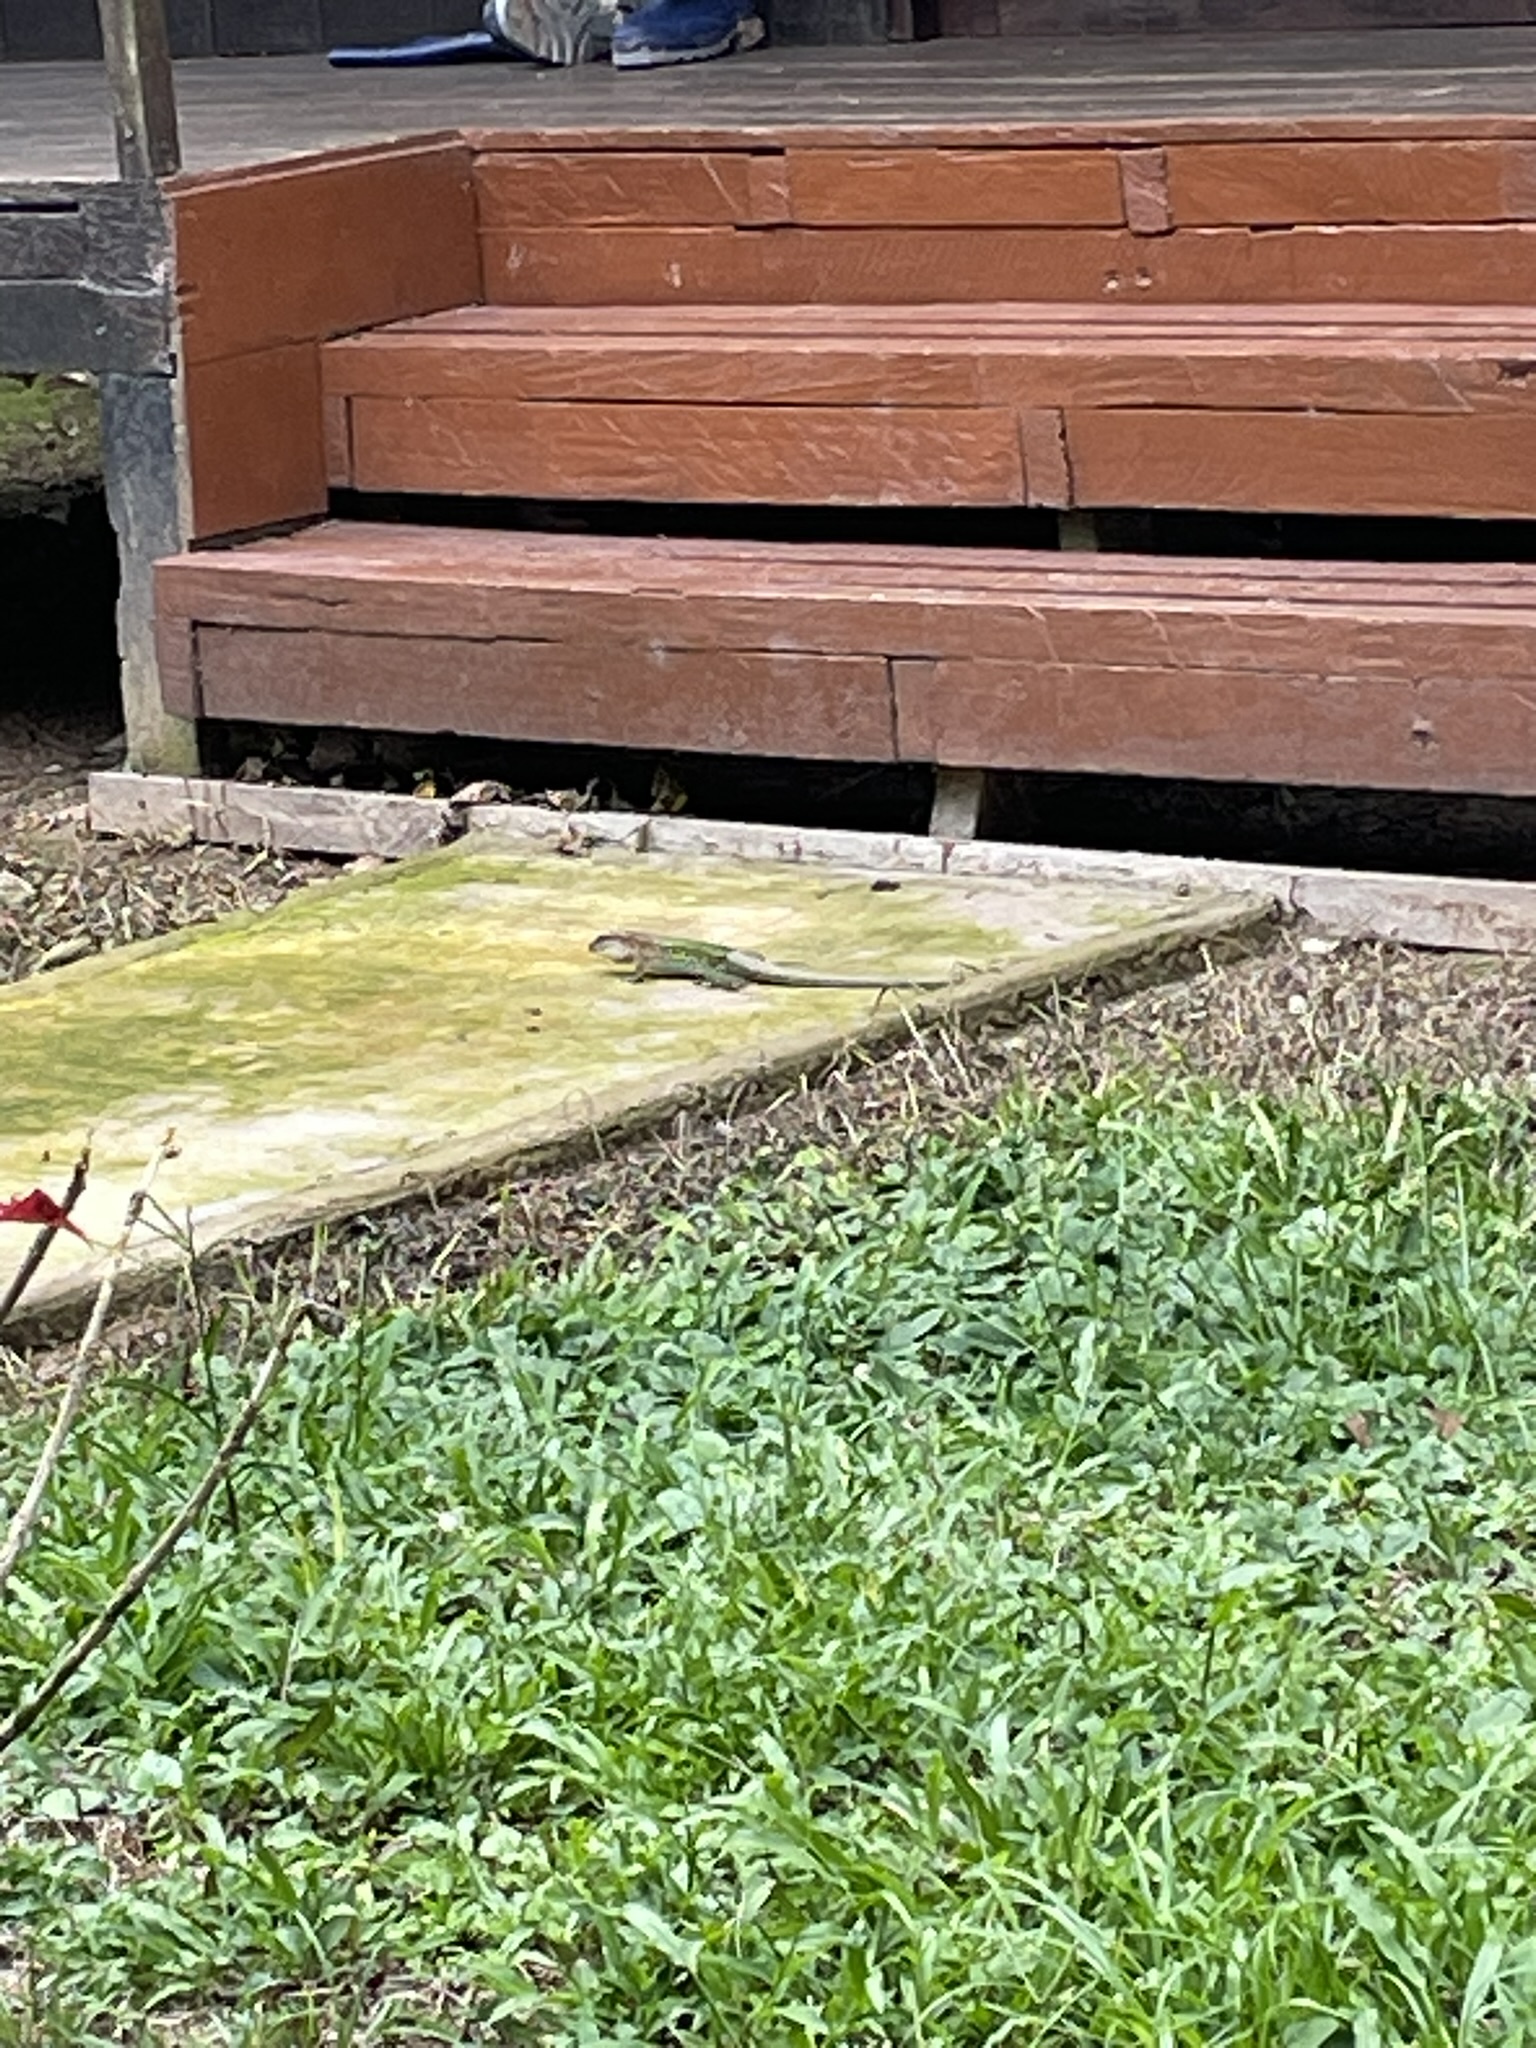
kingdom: Animalia
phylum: Chordata
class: Squamata
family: Teiidae
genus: Ameiva
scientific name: Ameiva ameiva
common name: Giant ameiva
